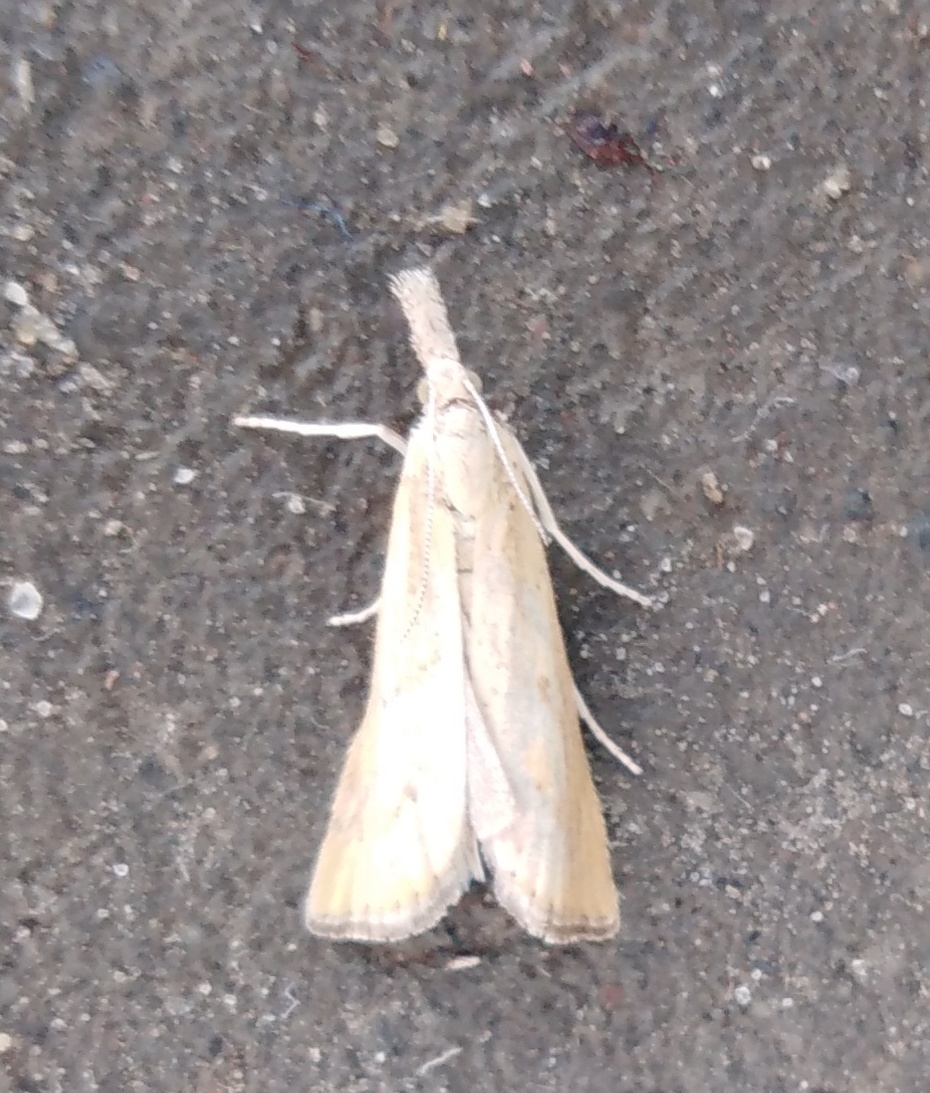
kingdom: Animalia
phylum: Arthropoda
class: Insecta
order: Lepidoptera
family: Crambidae
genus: Agriphila
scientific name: Agriphila inquinatella
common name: Barred grass-veneer
